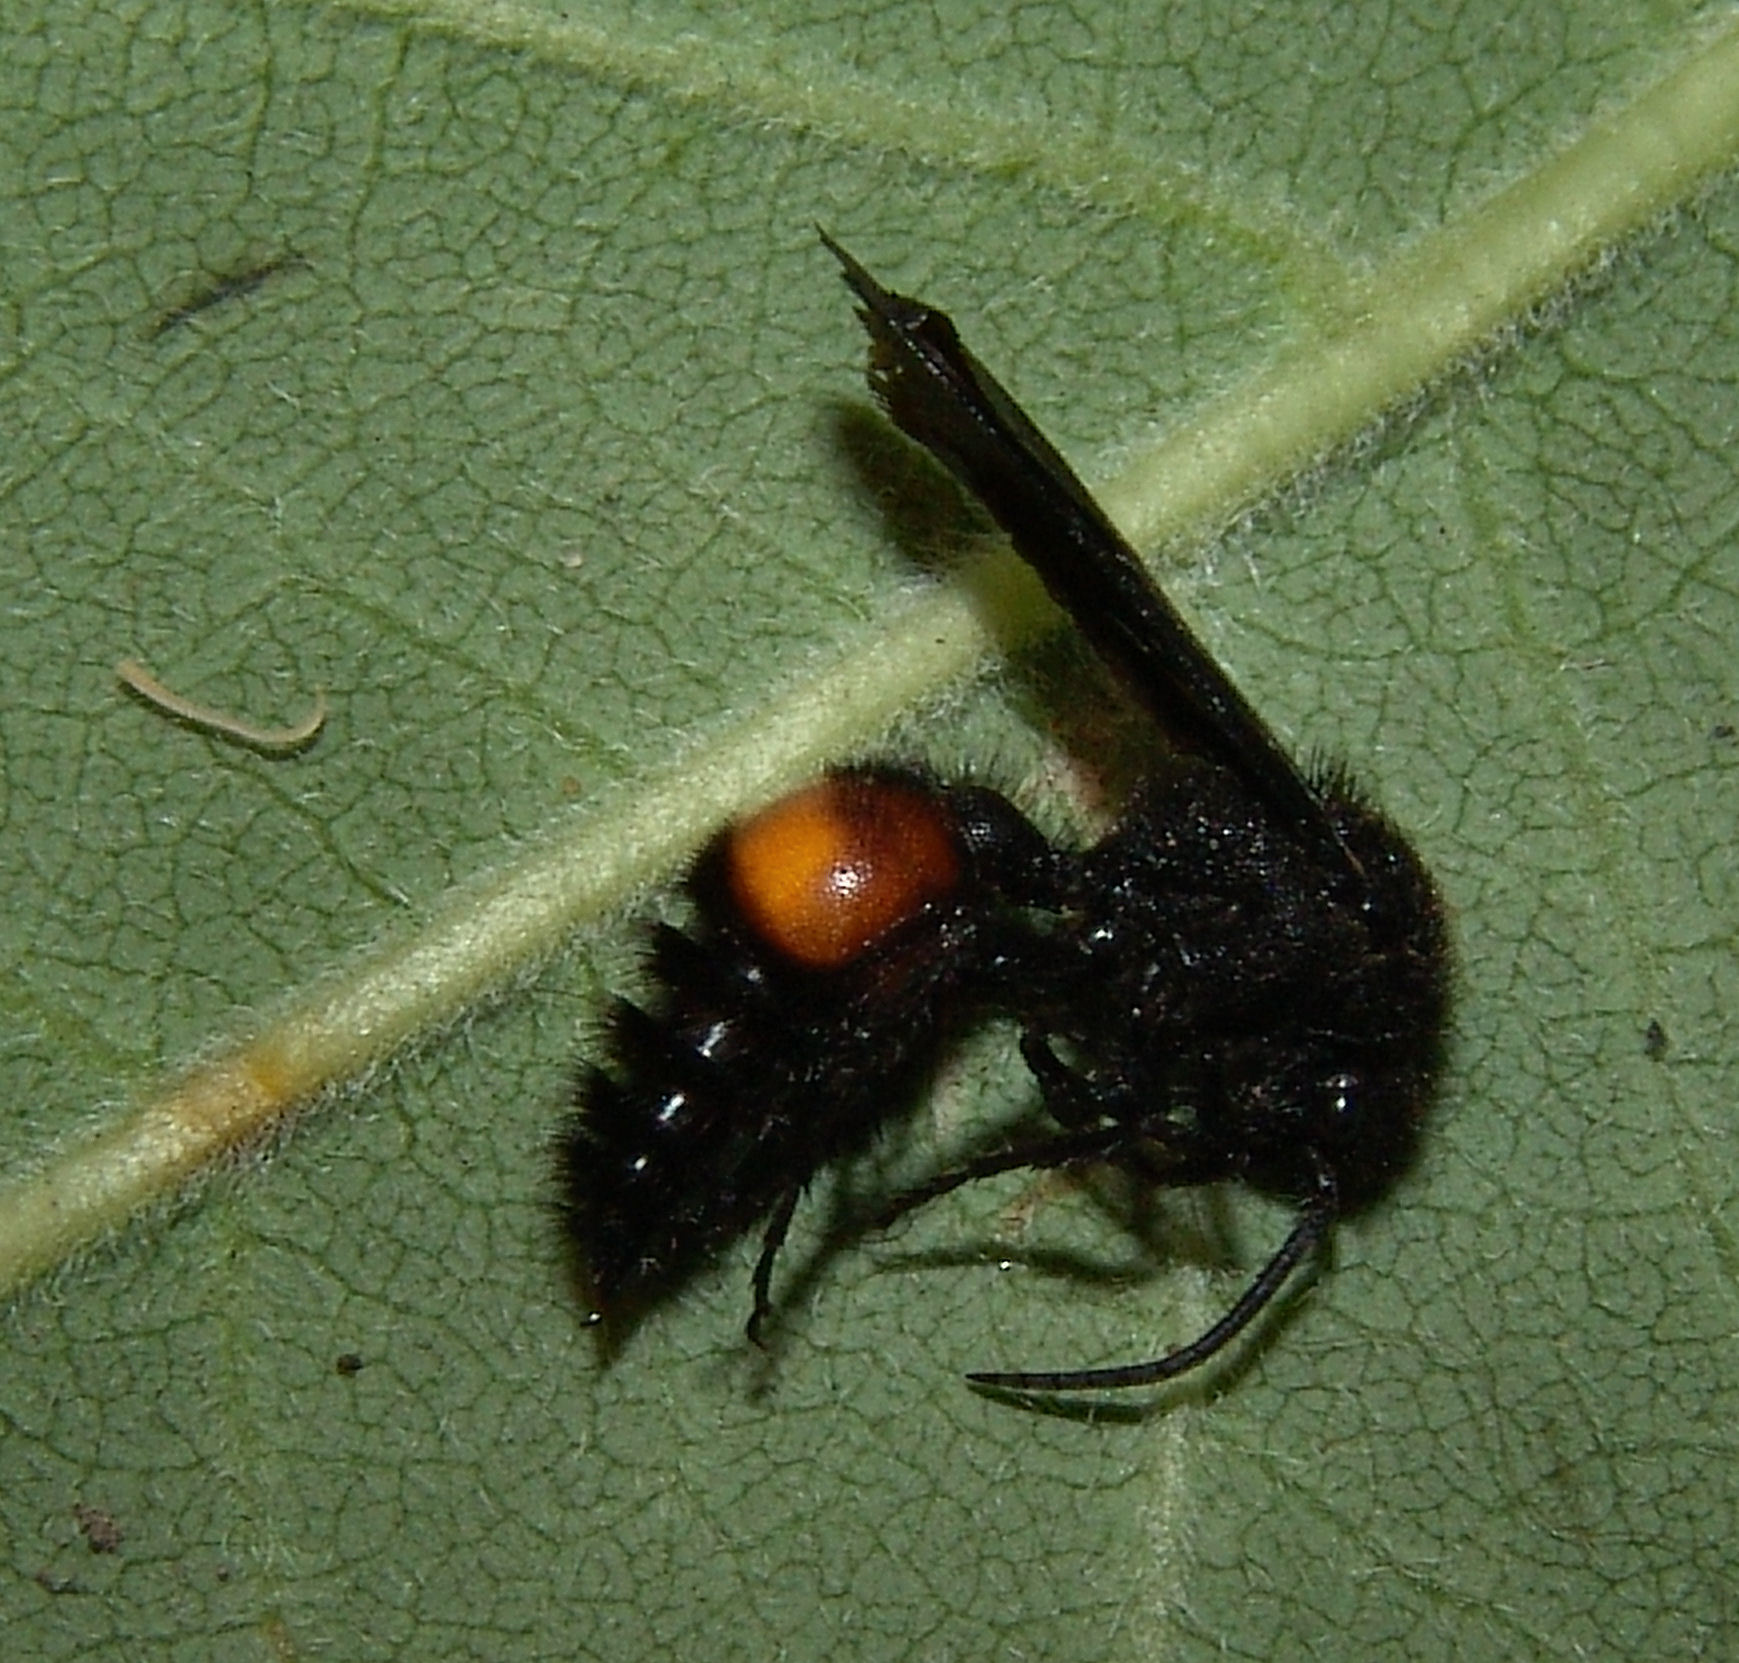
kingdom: Animalia
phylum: Arthropoda
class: Insecta
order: Hymenoptera
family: Mutillidae
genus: Dasymutilla
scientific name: Dasymutilla
